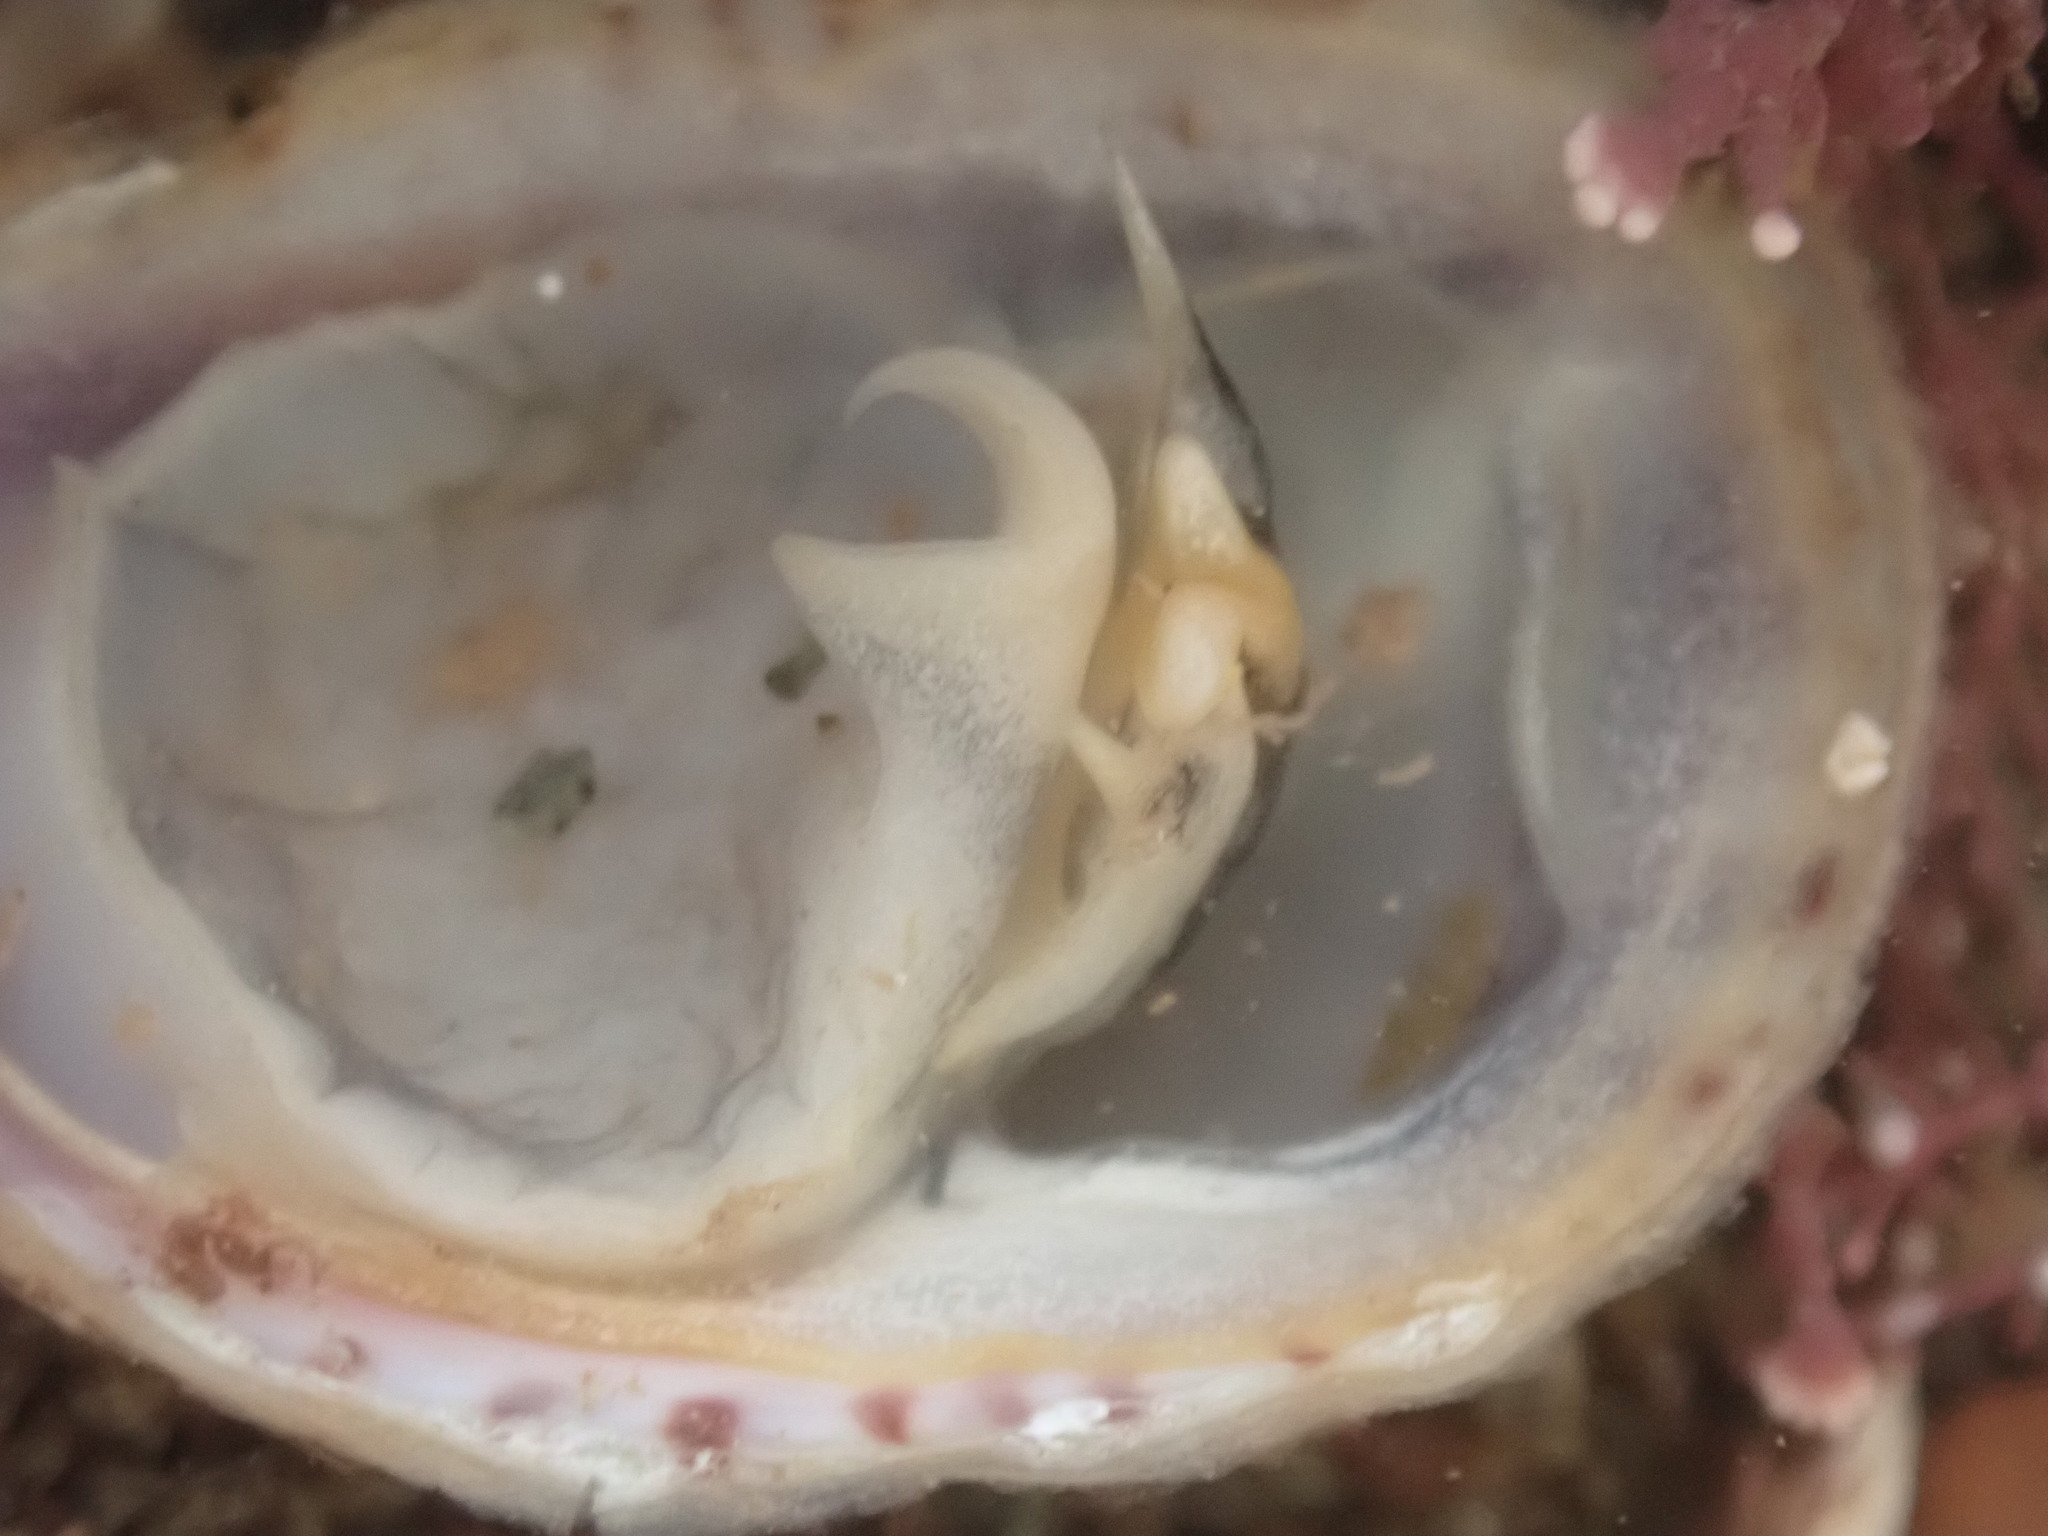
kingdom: Animalia
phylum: Mollusca
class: Gastropoda
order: Littorinimorpha
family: Calyptraeidae
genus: Crepidula
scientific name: Crepidula fornicata
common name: Slipper limpet
